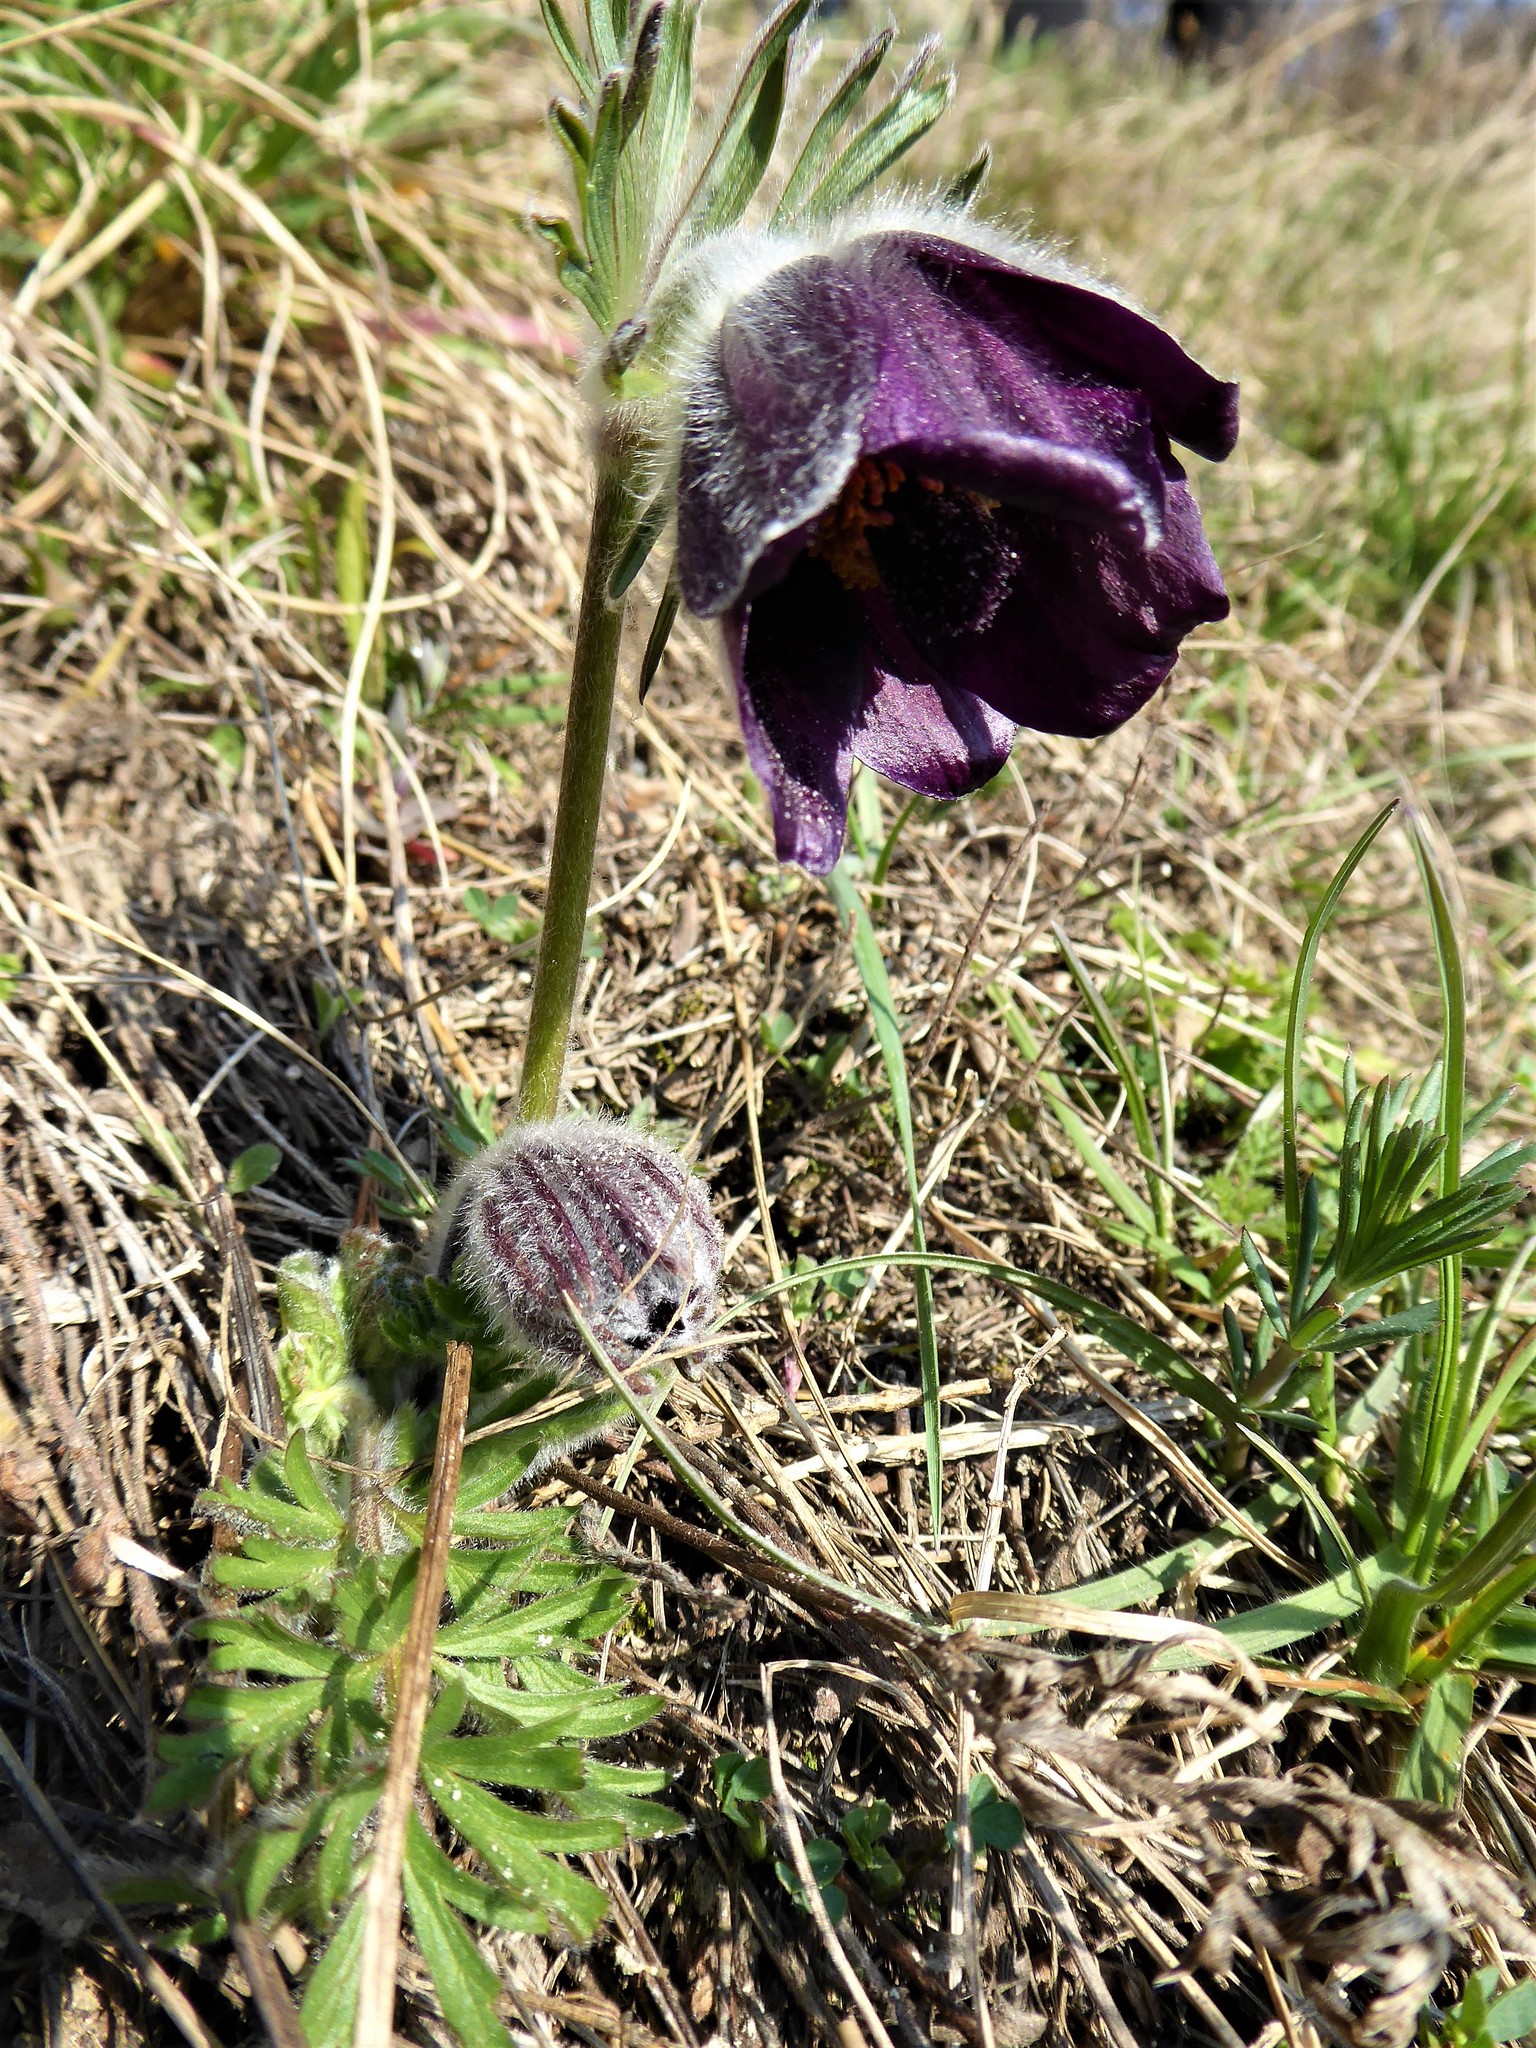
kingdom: Plantae
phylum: Tracheophyta
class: Magnoliopsida
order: Ranunculales
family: Ranunculaceae
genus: Pulsatilla
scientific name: Pulsatilla pratensis
